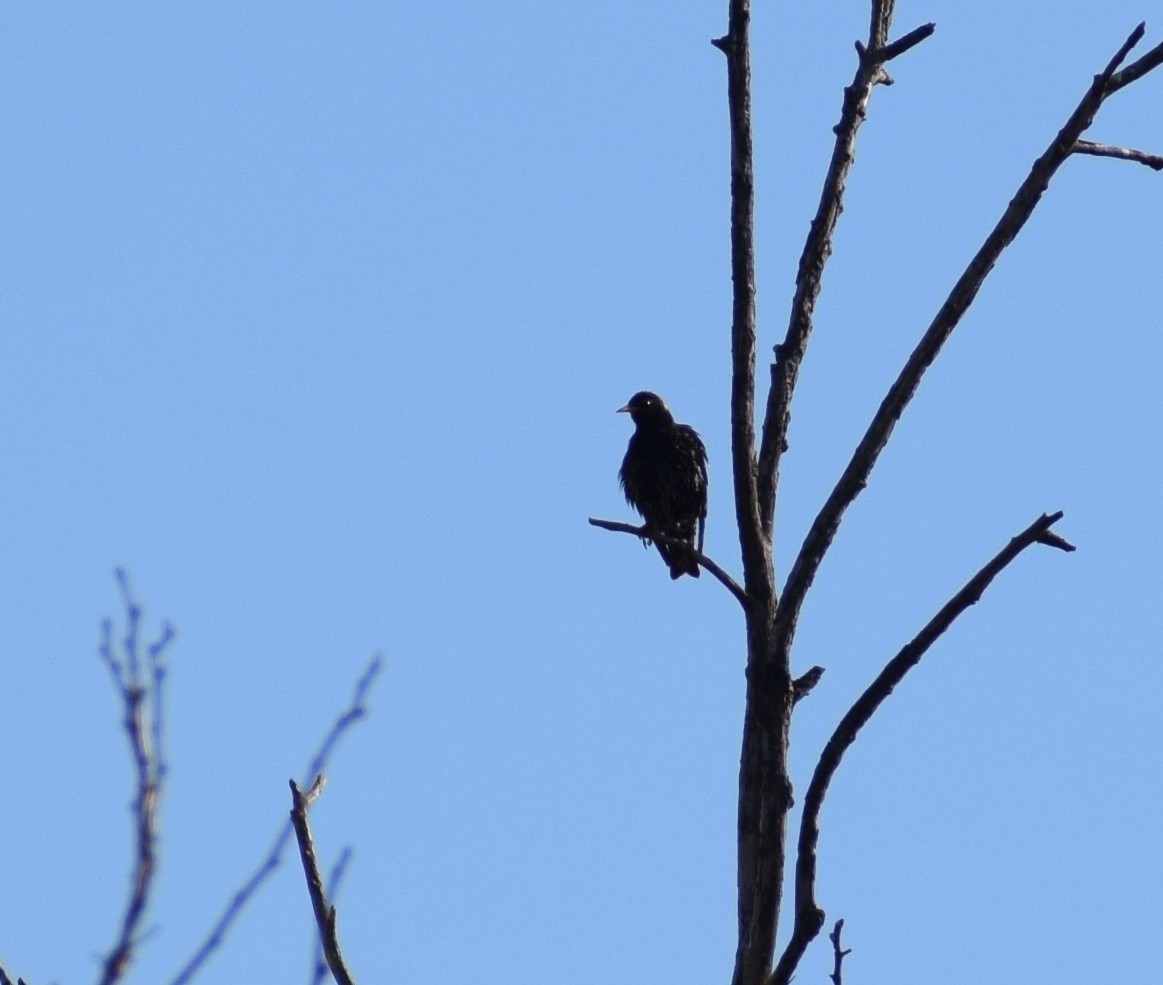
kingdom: Animalia
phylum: Chordata
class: Aves
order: Passeriformes
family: Sturnidae
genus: Sturnus
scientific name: Sturnus vulgaris
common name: Common starling
